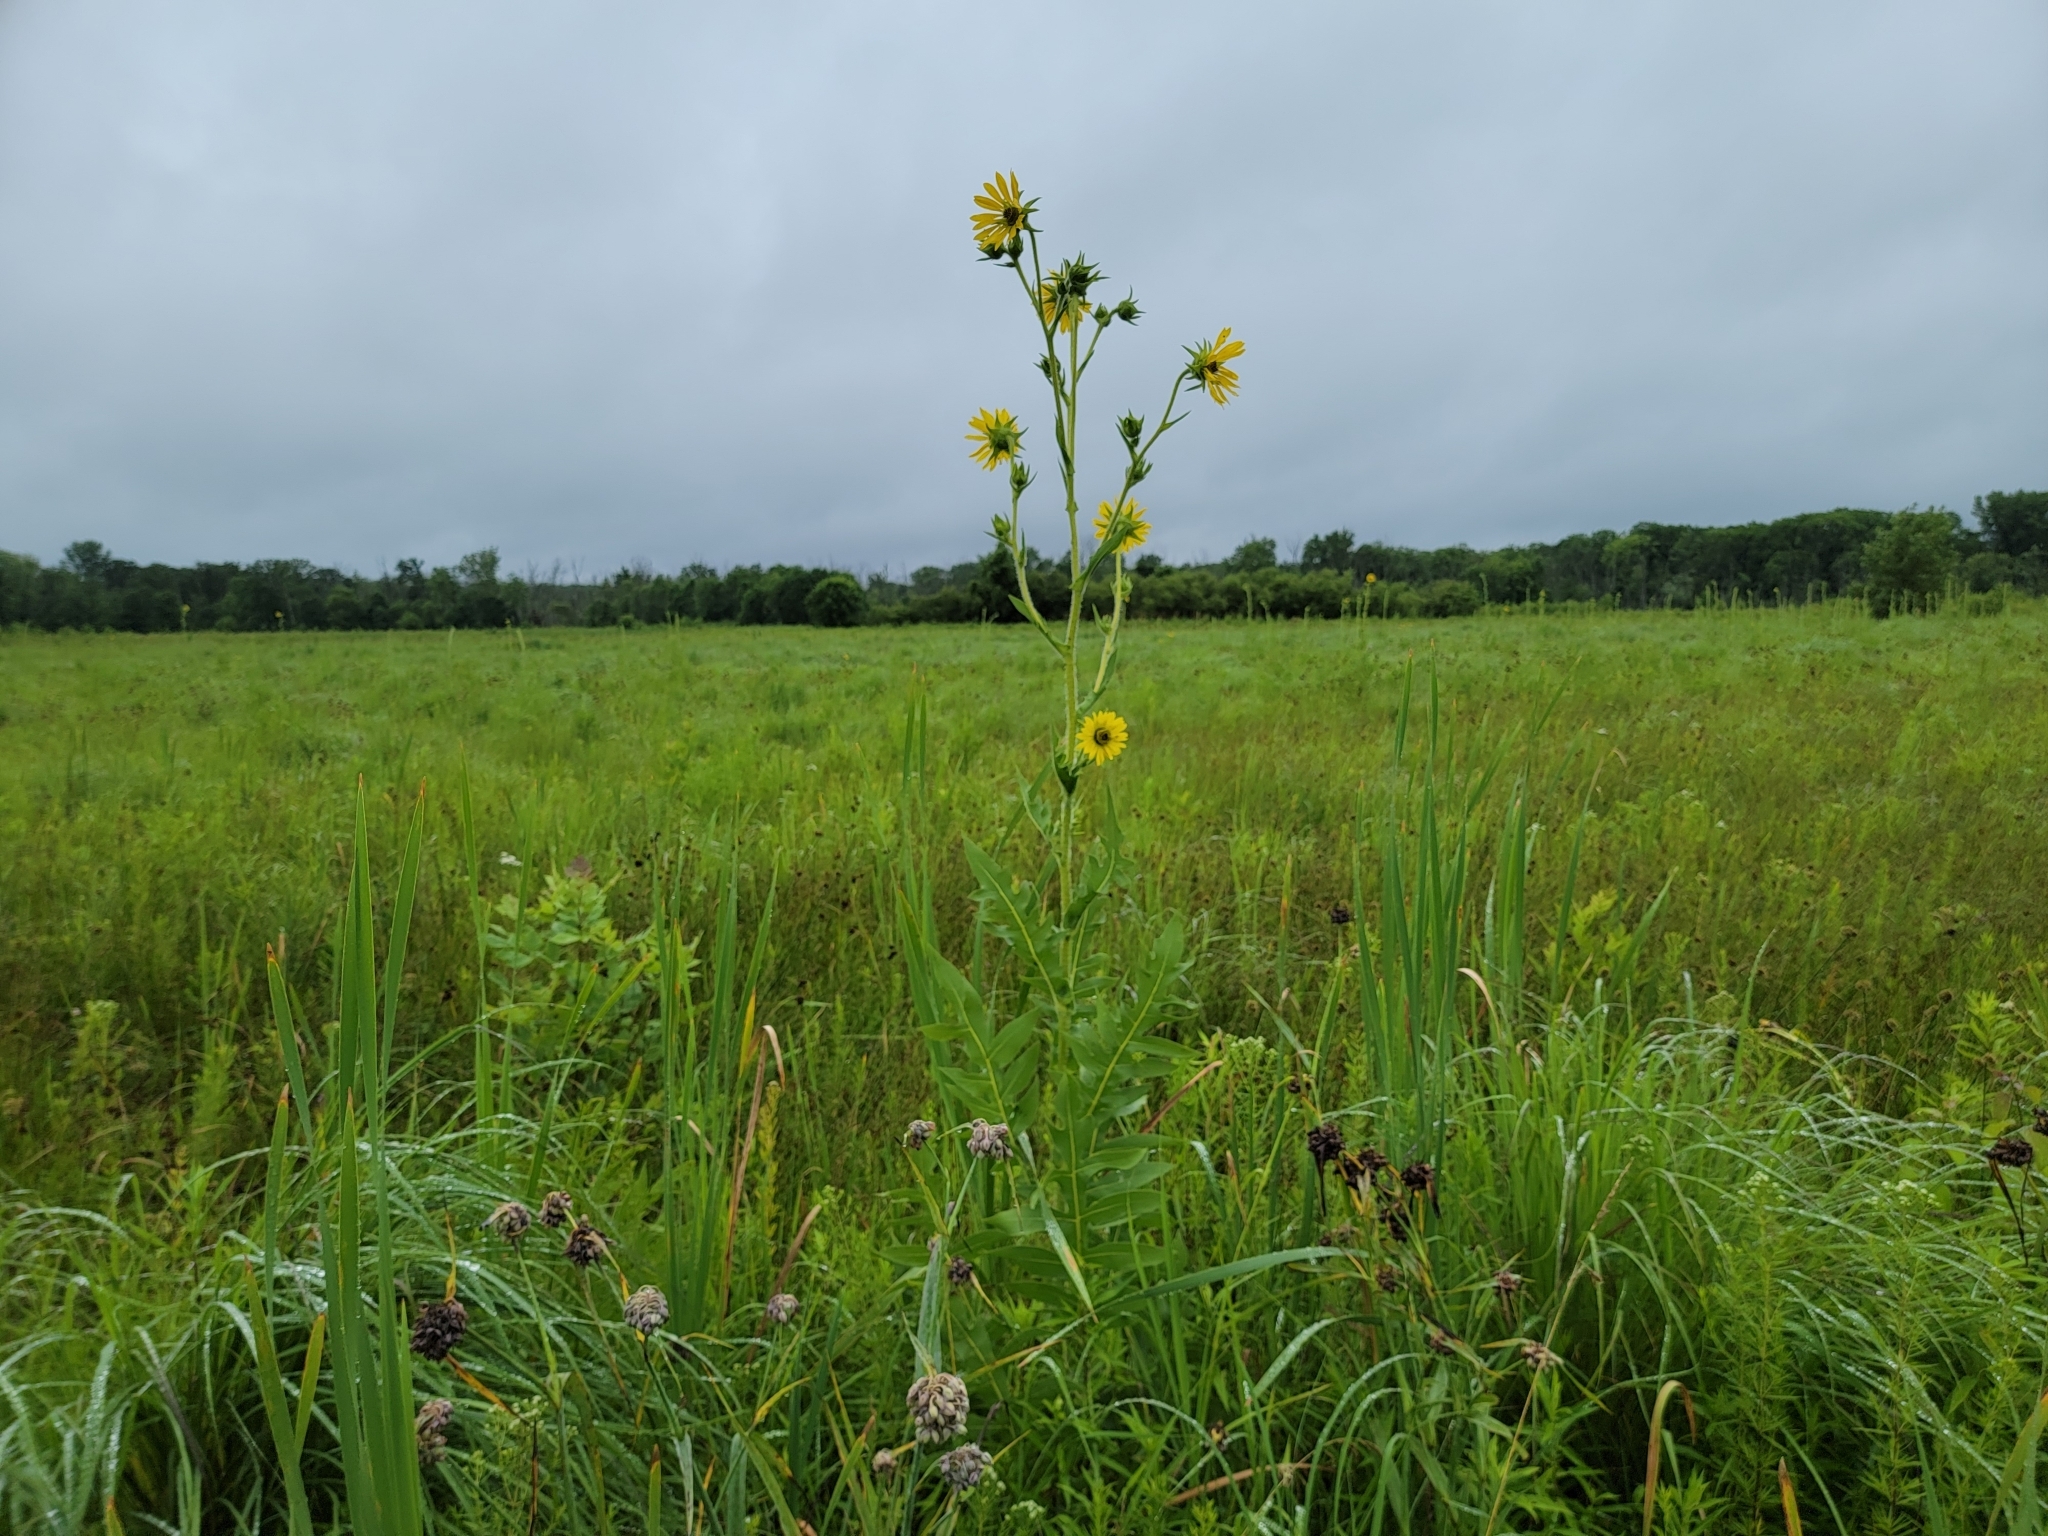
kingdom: Plantae
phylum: Tracheophyta
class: Magnoliopsida
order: Asterales
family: Asteraceae
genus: Silphium
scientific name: Silphium laciniatum
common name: Polarplant
